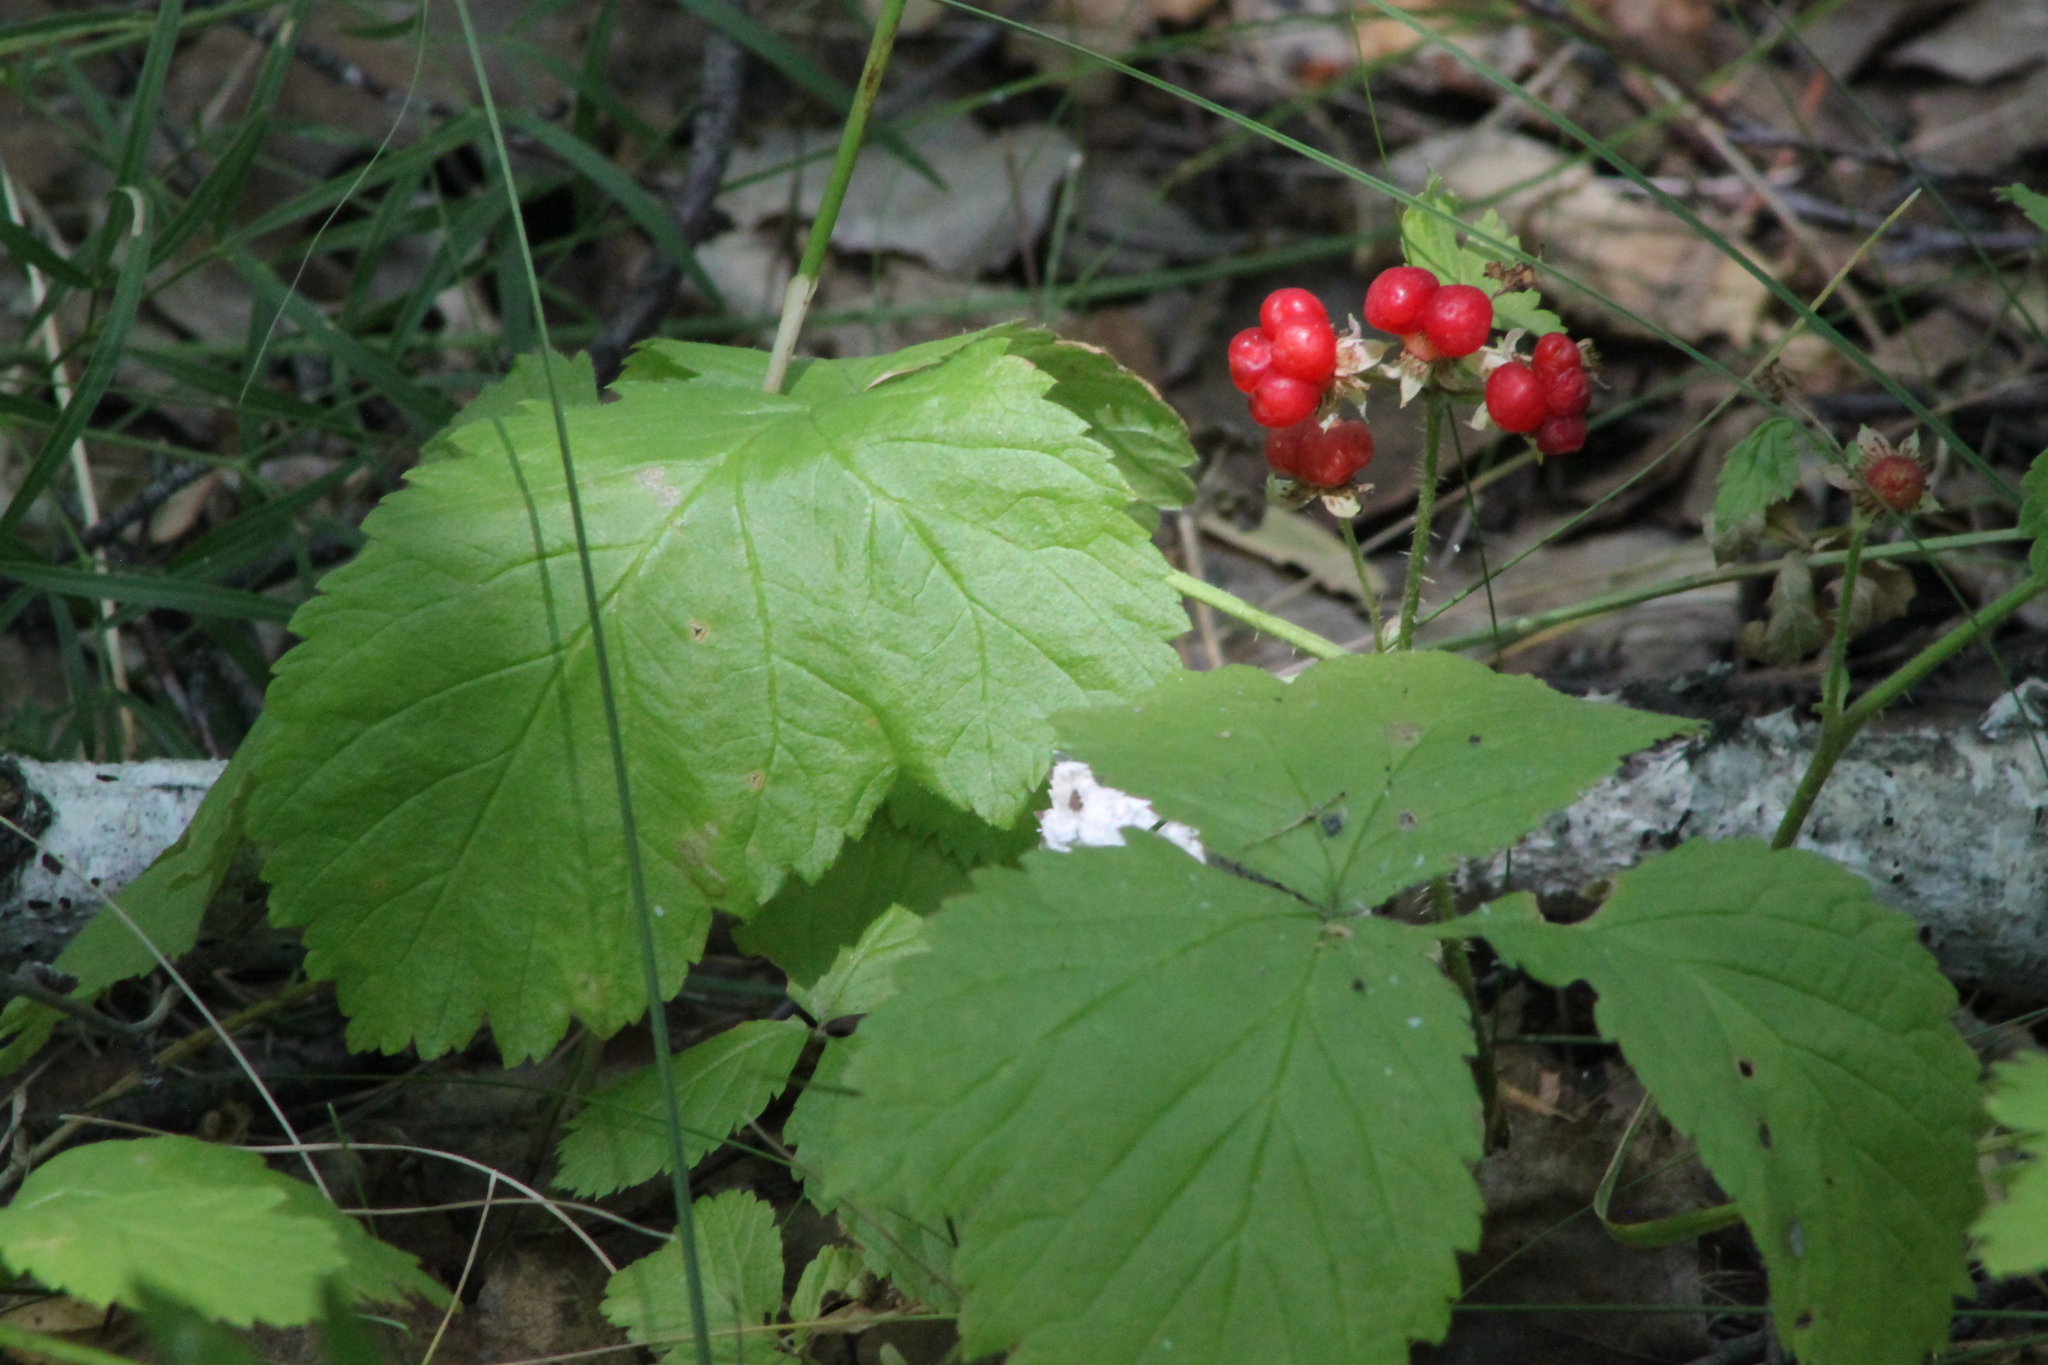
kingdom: Plantae
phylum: Tracheophyta
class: Magnoliopsida
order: Rosales
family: Rosaceae
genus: Rubus
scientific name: Rubus saxatilis
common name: Stone bramble
